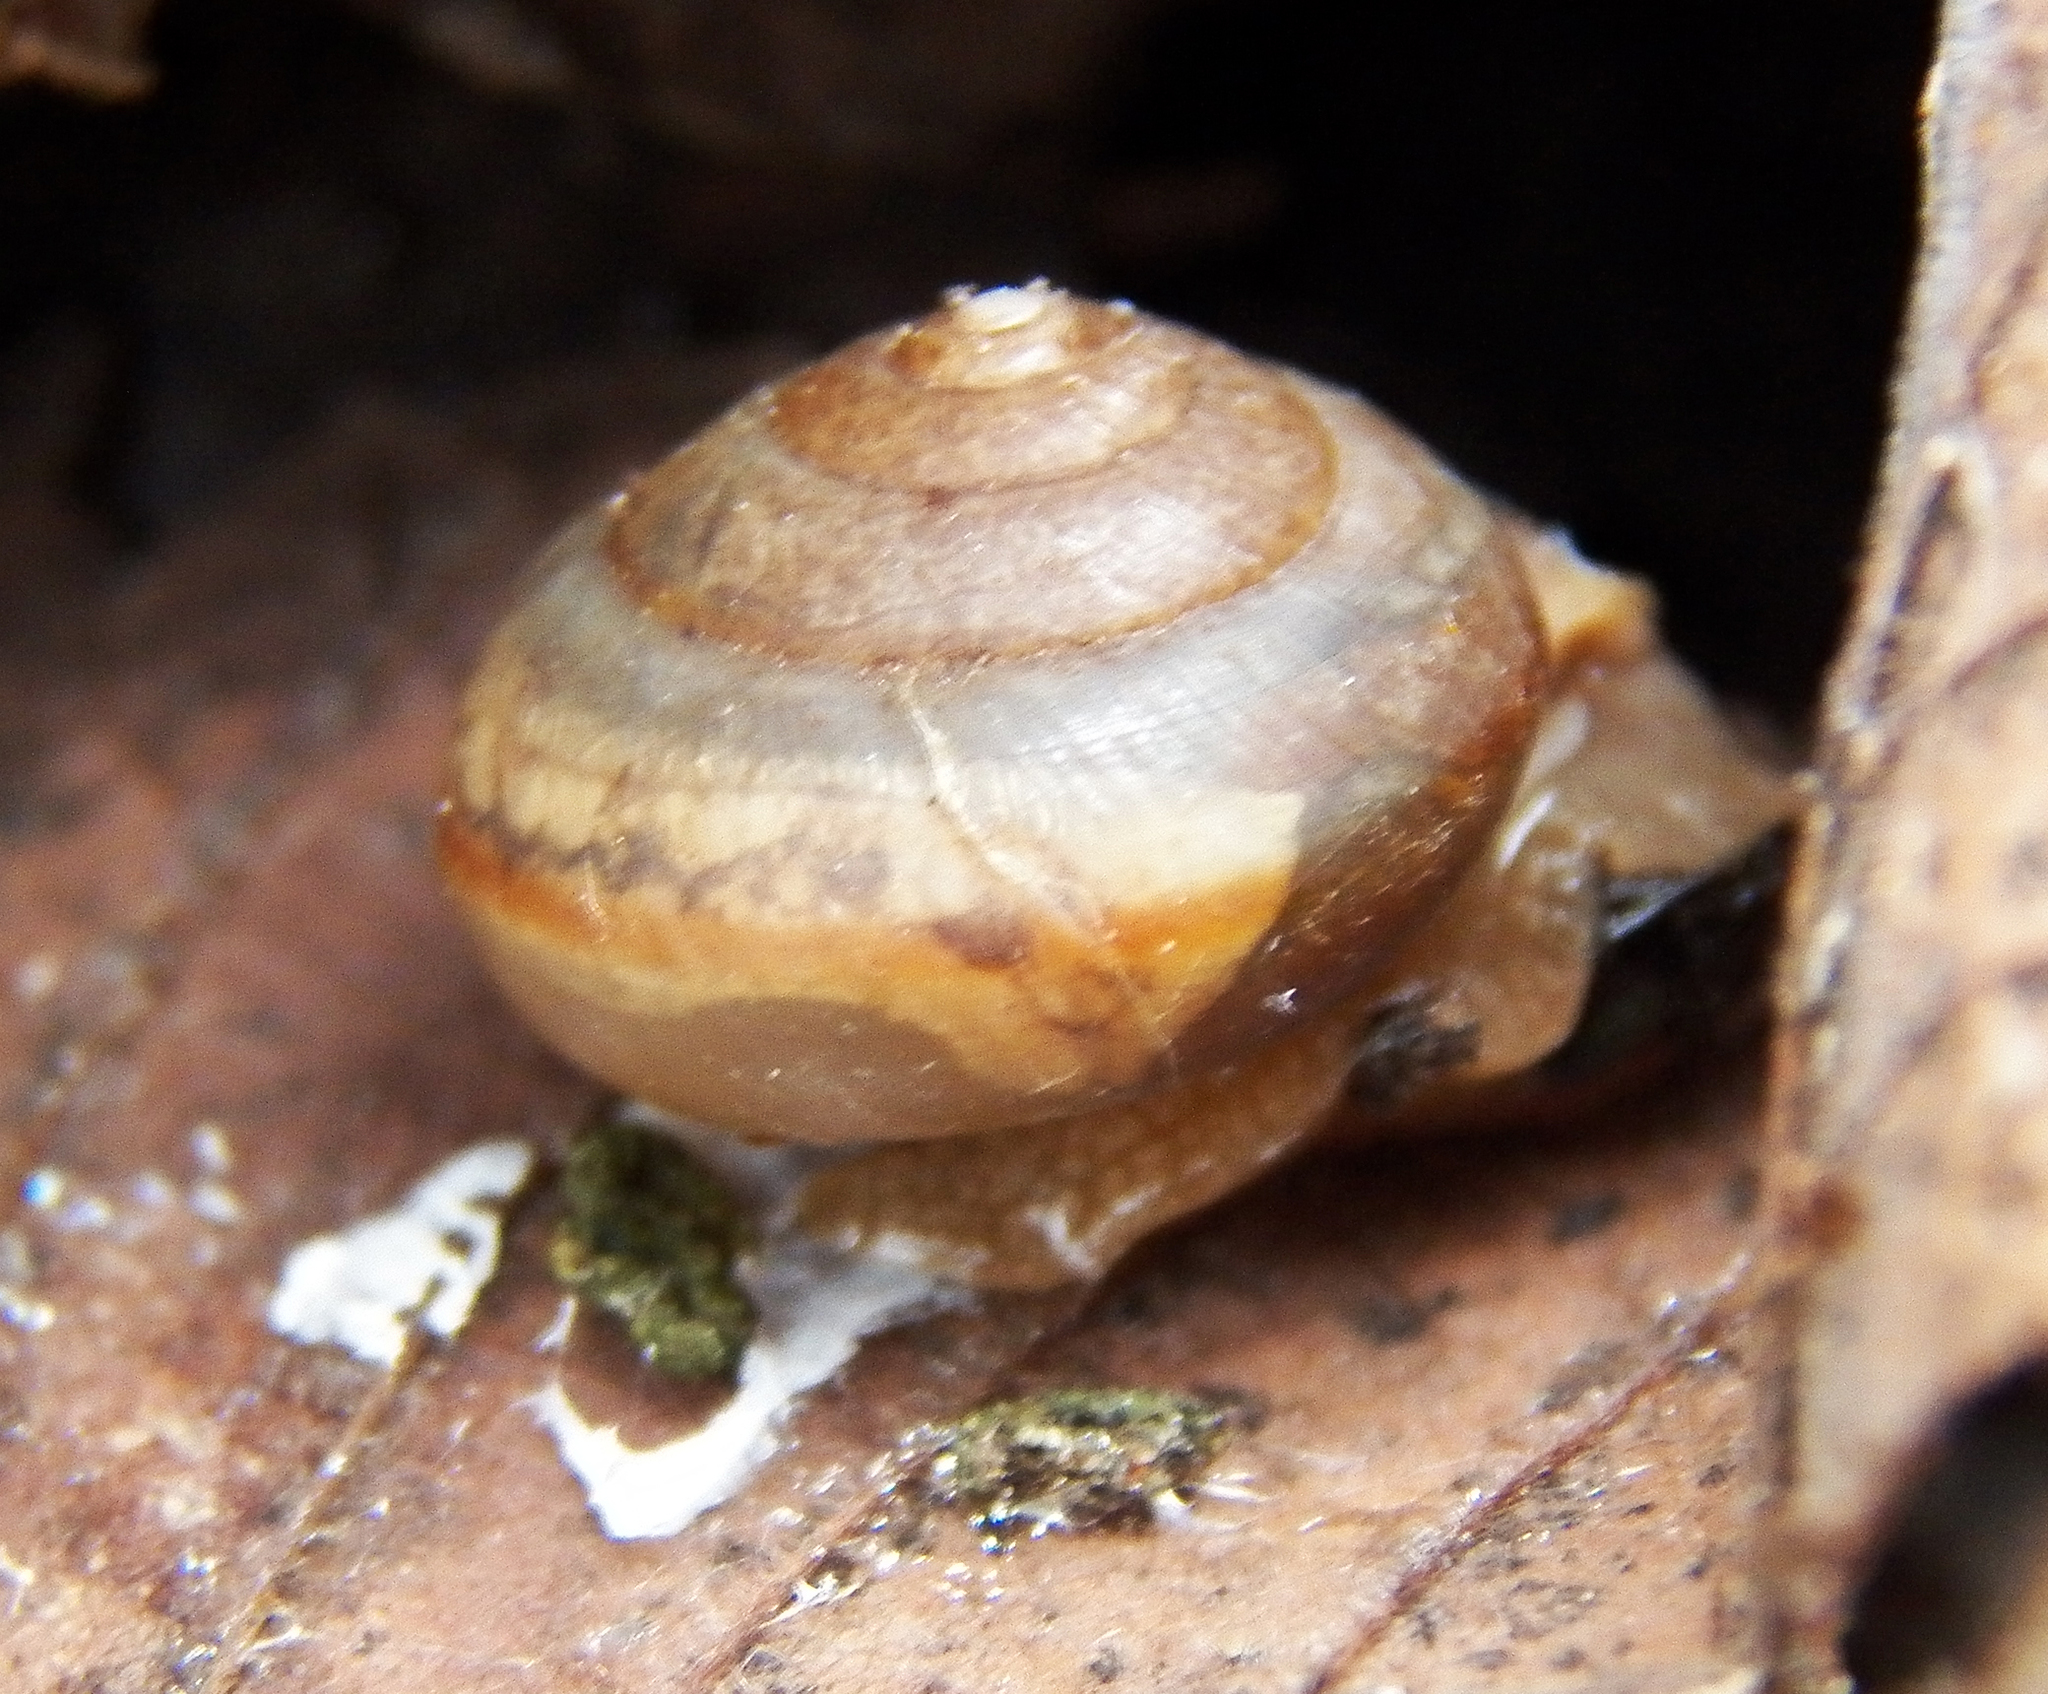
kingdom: Animalia
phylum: Mollusca
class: Gastropoda
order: Stylommatophora
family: Camaenidae
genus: Bradybaena
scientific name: Bradybaena similaris
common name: Asian trampsnail
